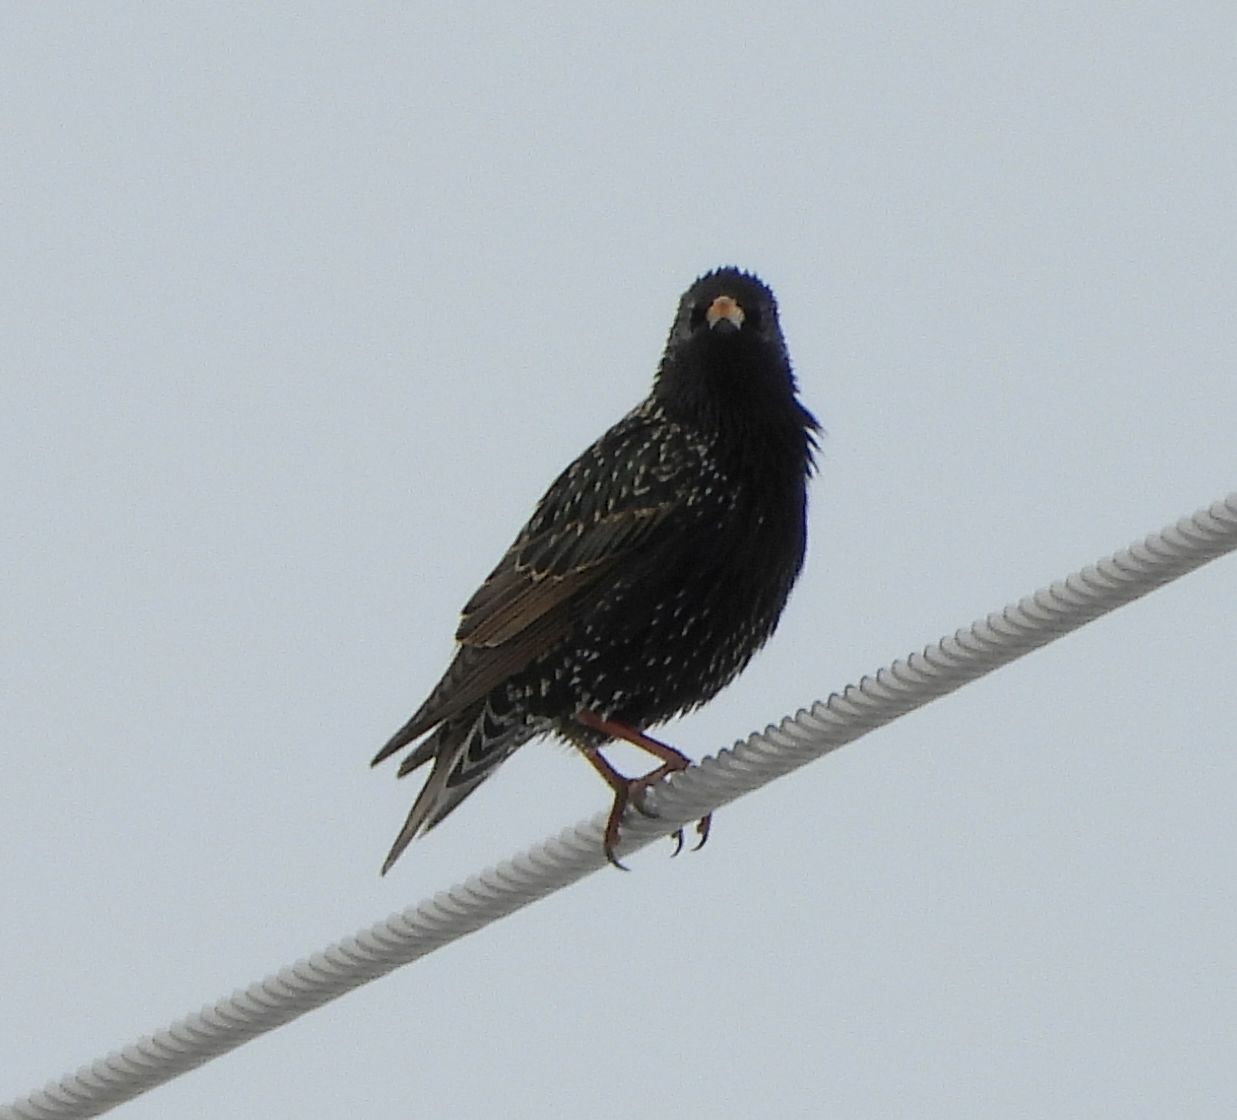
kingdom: Animalia
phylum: Chordata
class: Aves
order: Passeriformes
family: Sturnidae
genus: Sturnus
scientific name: Sturnus vulgaris
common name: Common starling
